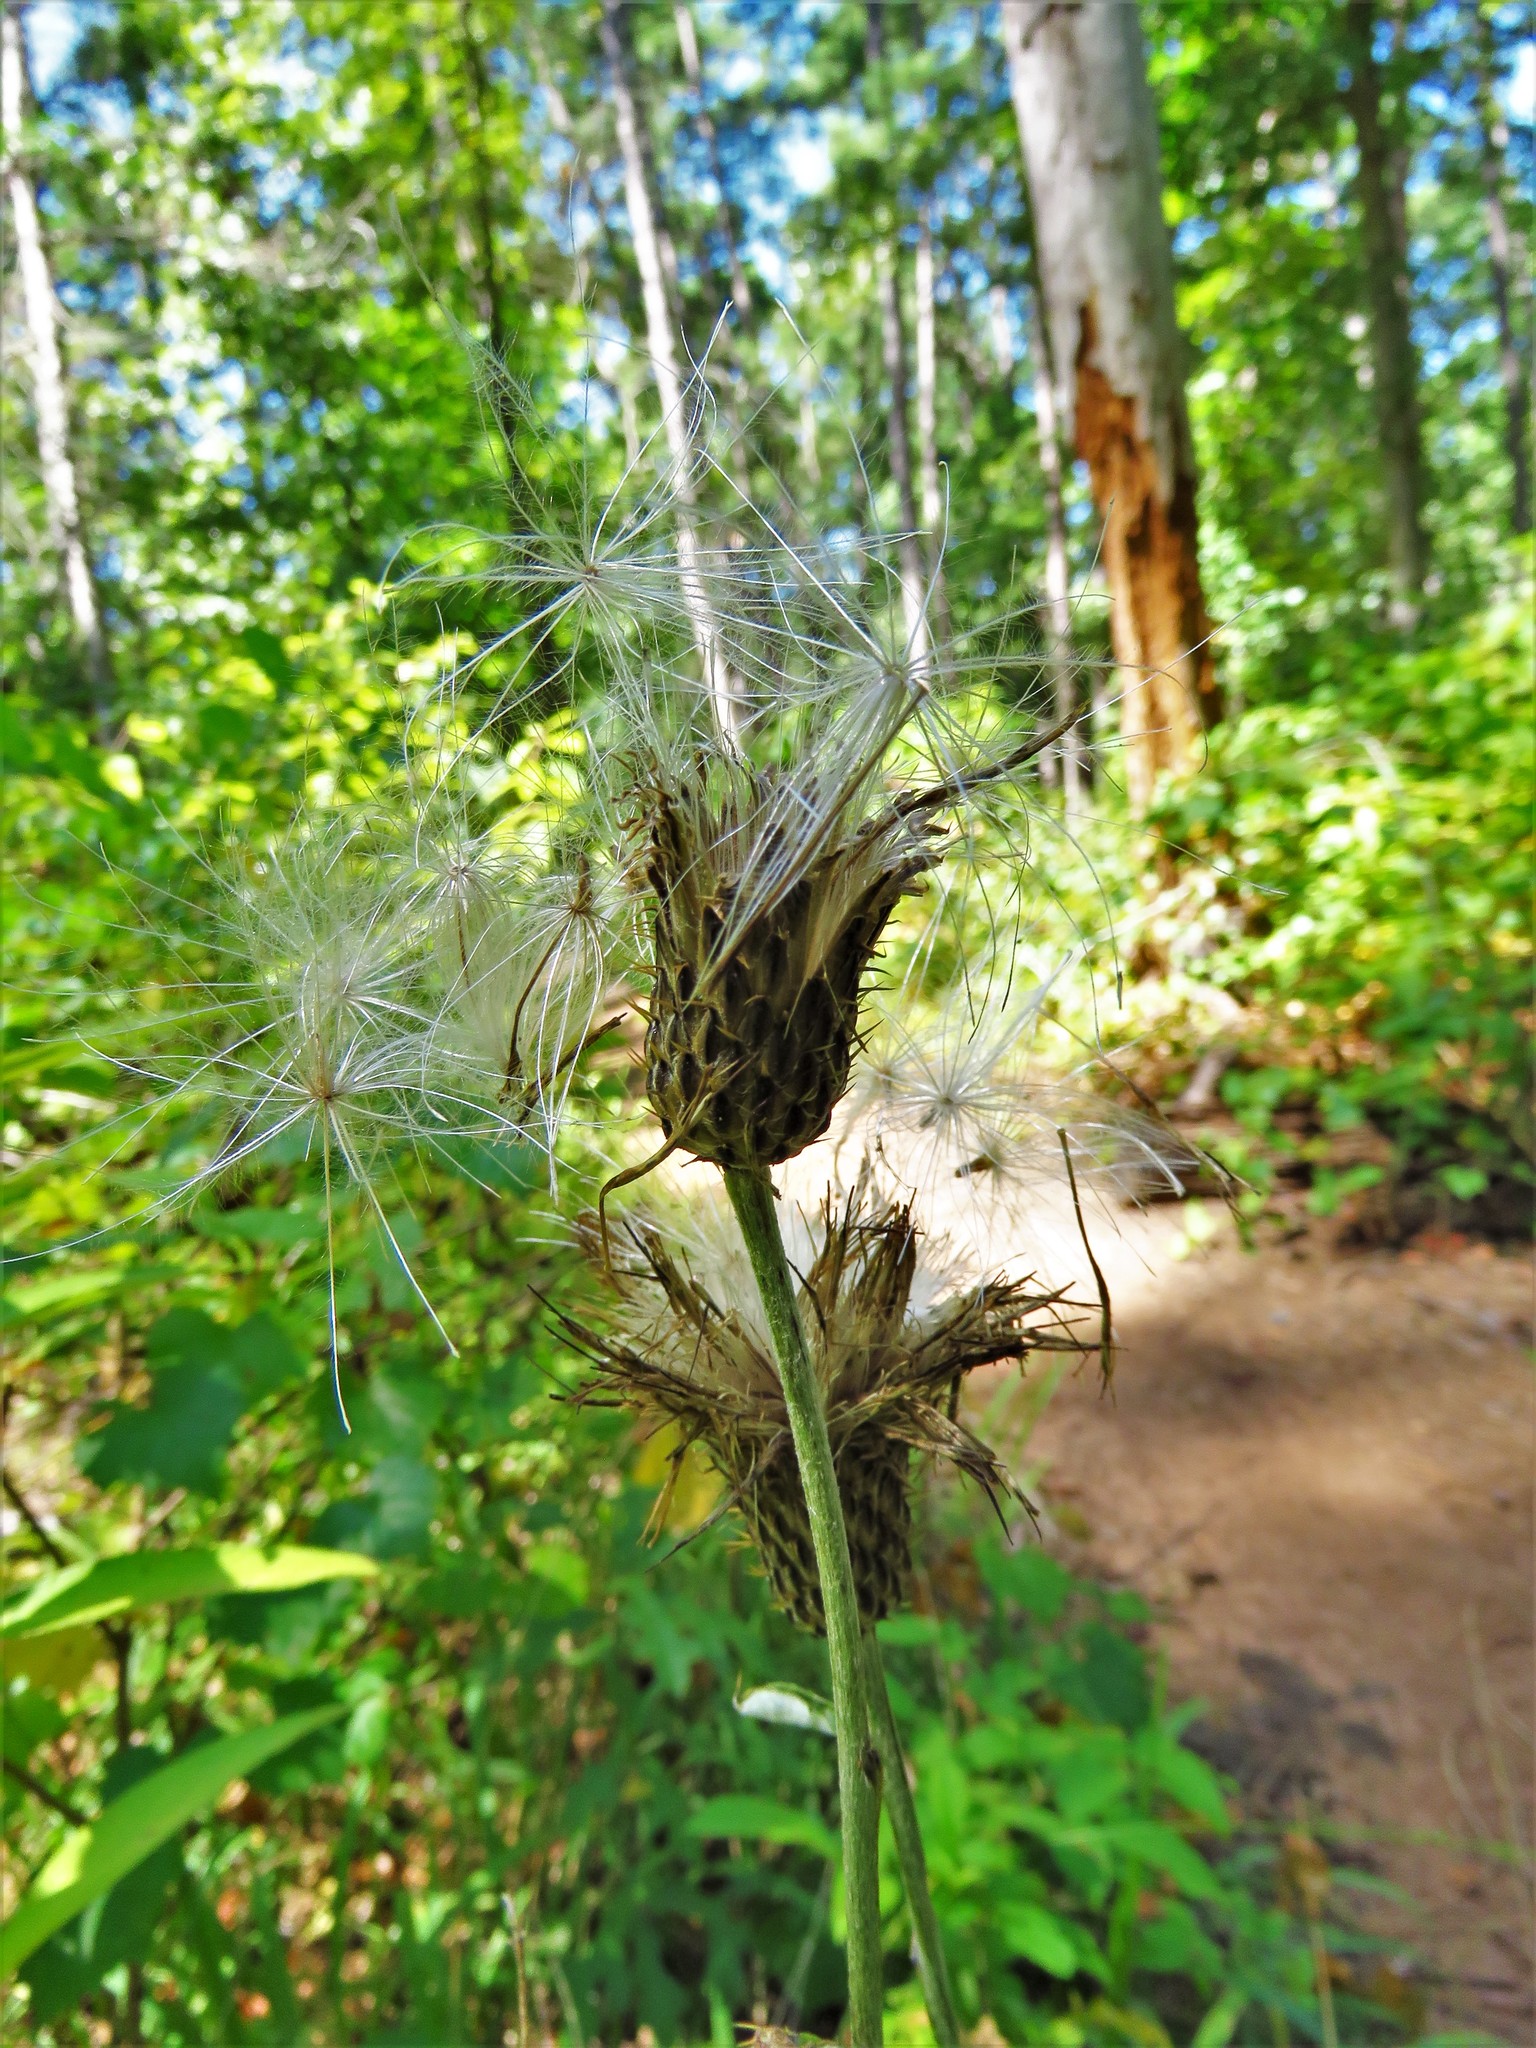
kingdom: Plantae
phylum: Tracheophyta
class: Magnoliopsida
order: Asterales
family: Asteraceae
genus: Cirsium
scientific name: Cirsium altissimum
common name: Roadside thistle
